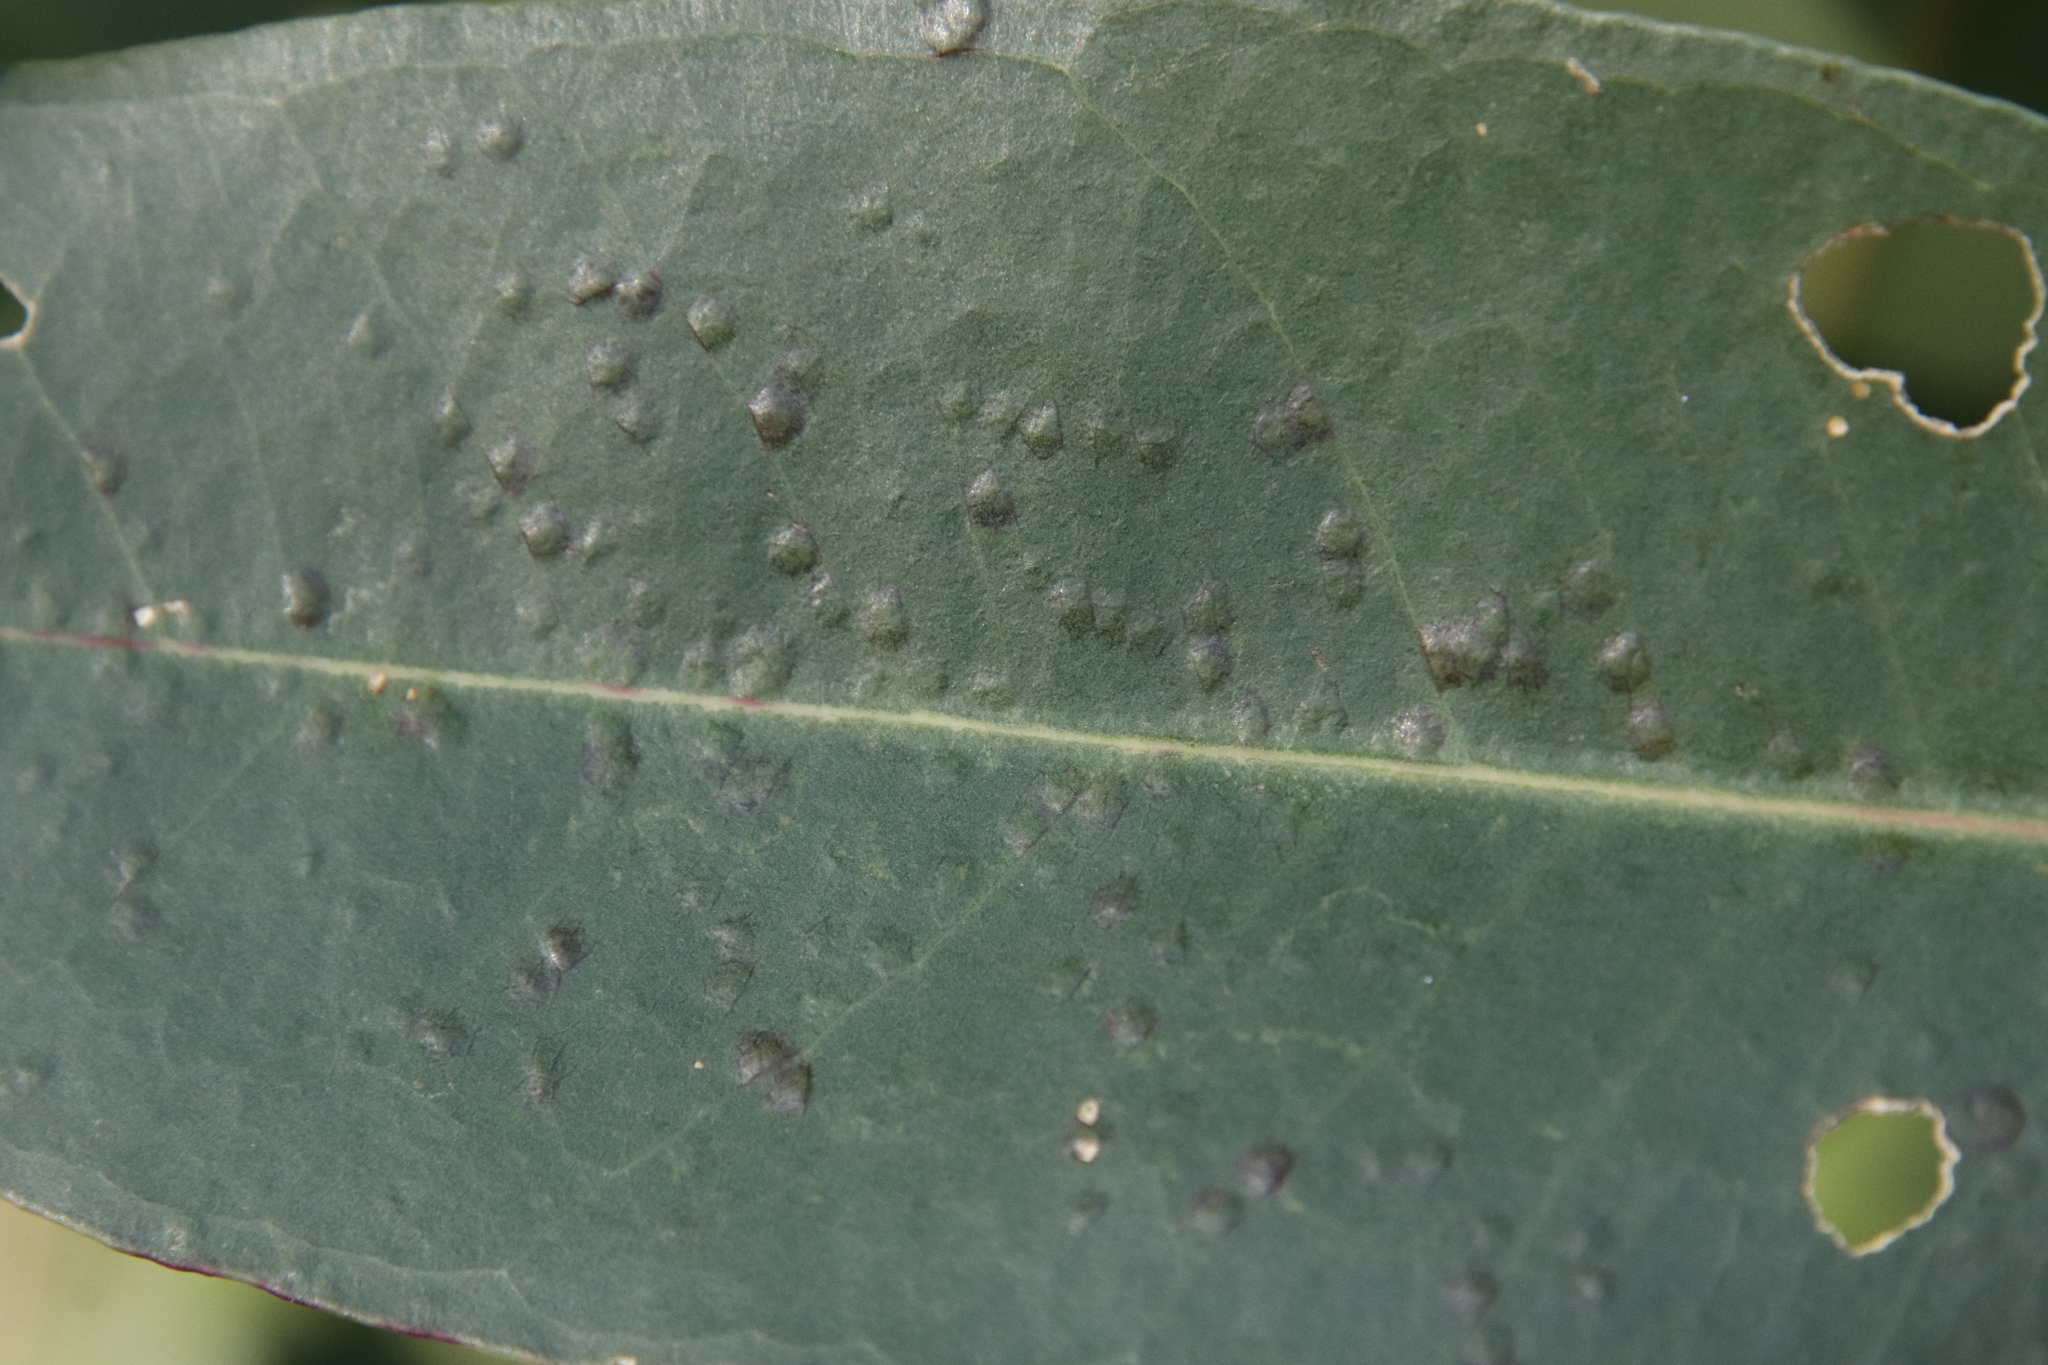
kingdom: Animalia
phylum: Arthropoda
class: Insecta
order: Hymenoptera
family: Eulophidae
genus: Ophelimus
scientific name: Ophelimus maskelli
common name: Gall wasp
